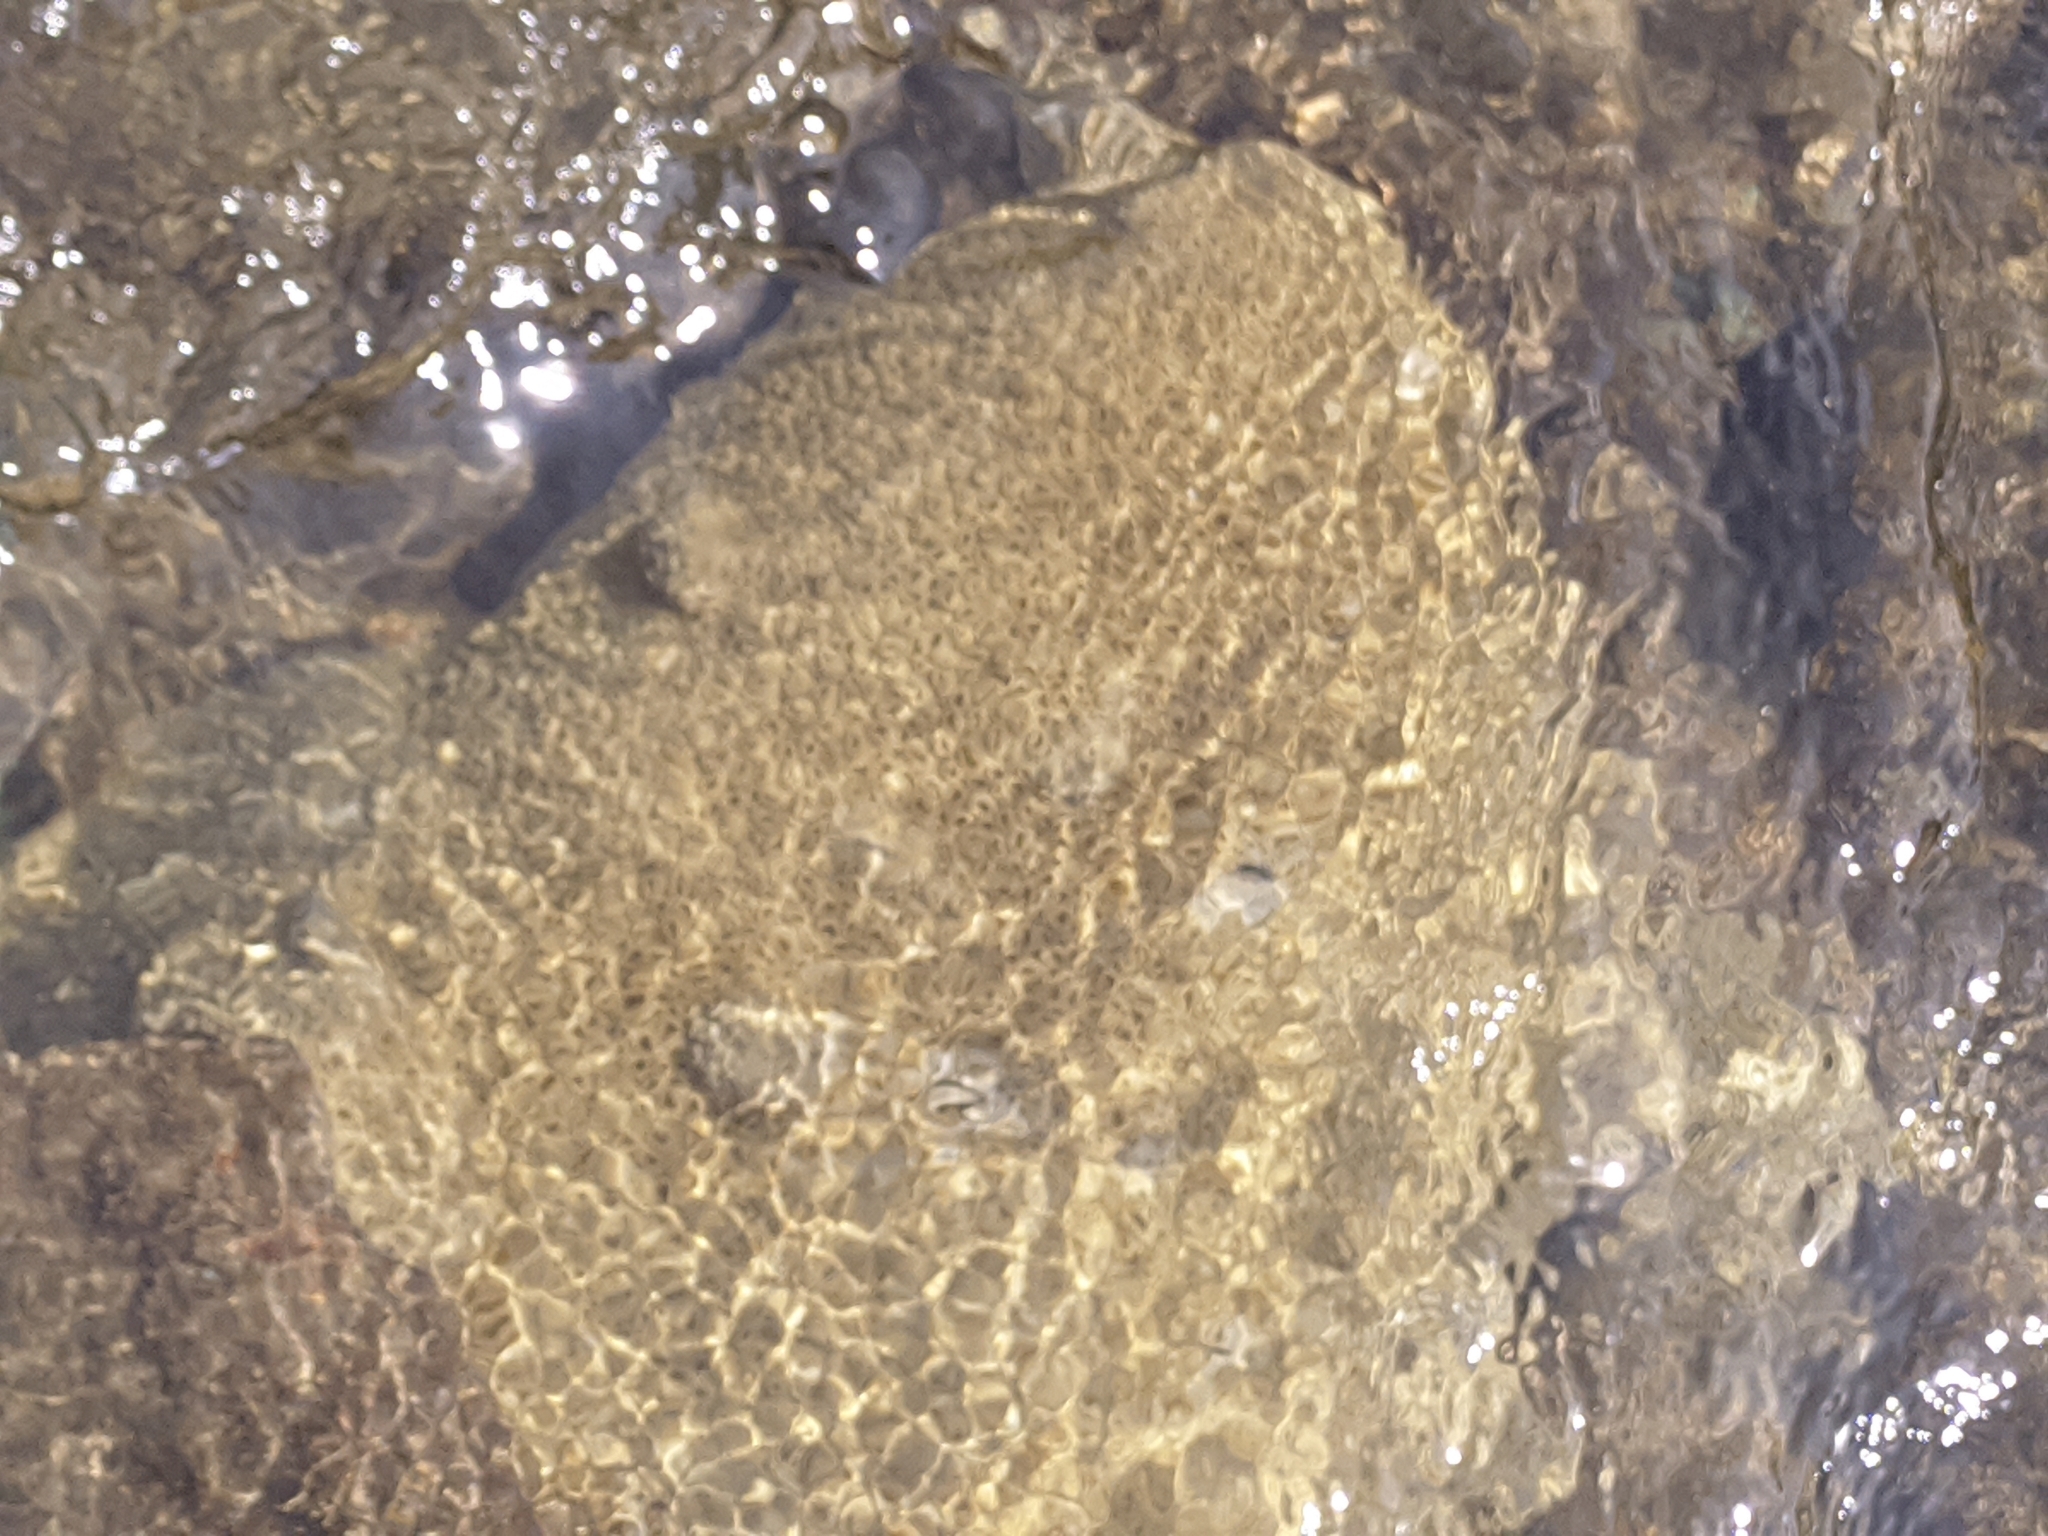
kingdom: Animalia
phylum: Cnidaria
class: Anthozoa
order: Zoantharia
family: Sphenopidae
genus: Palythoa
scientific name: Palythoa caribaeorum
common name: Encrusting colonial anemone
